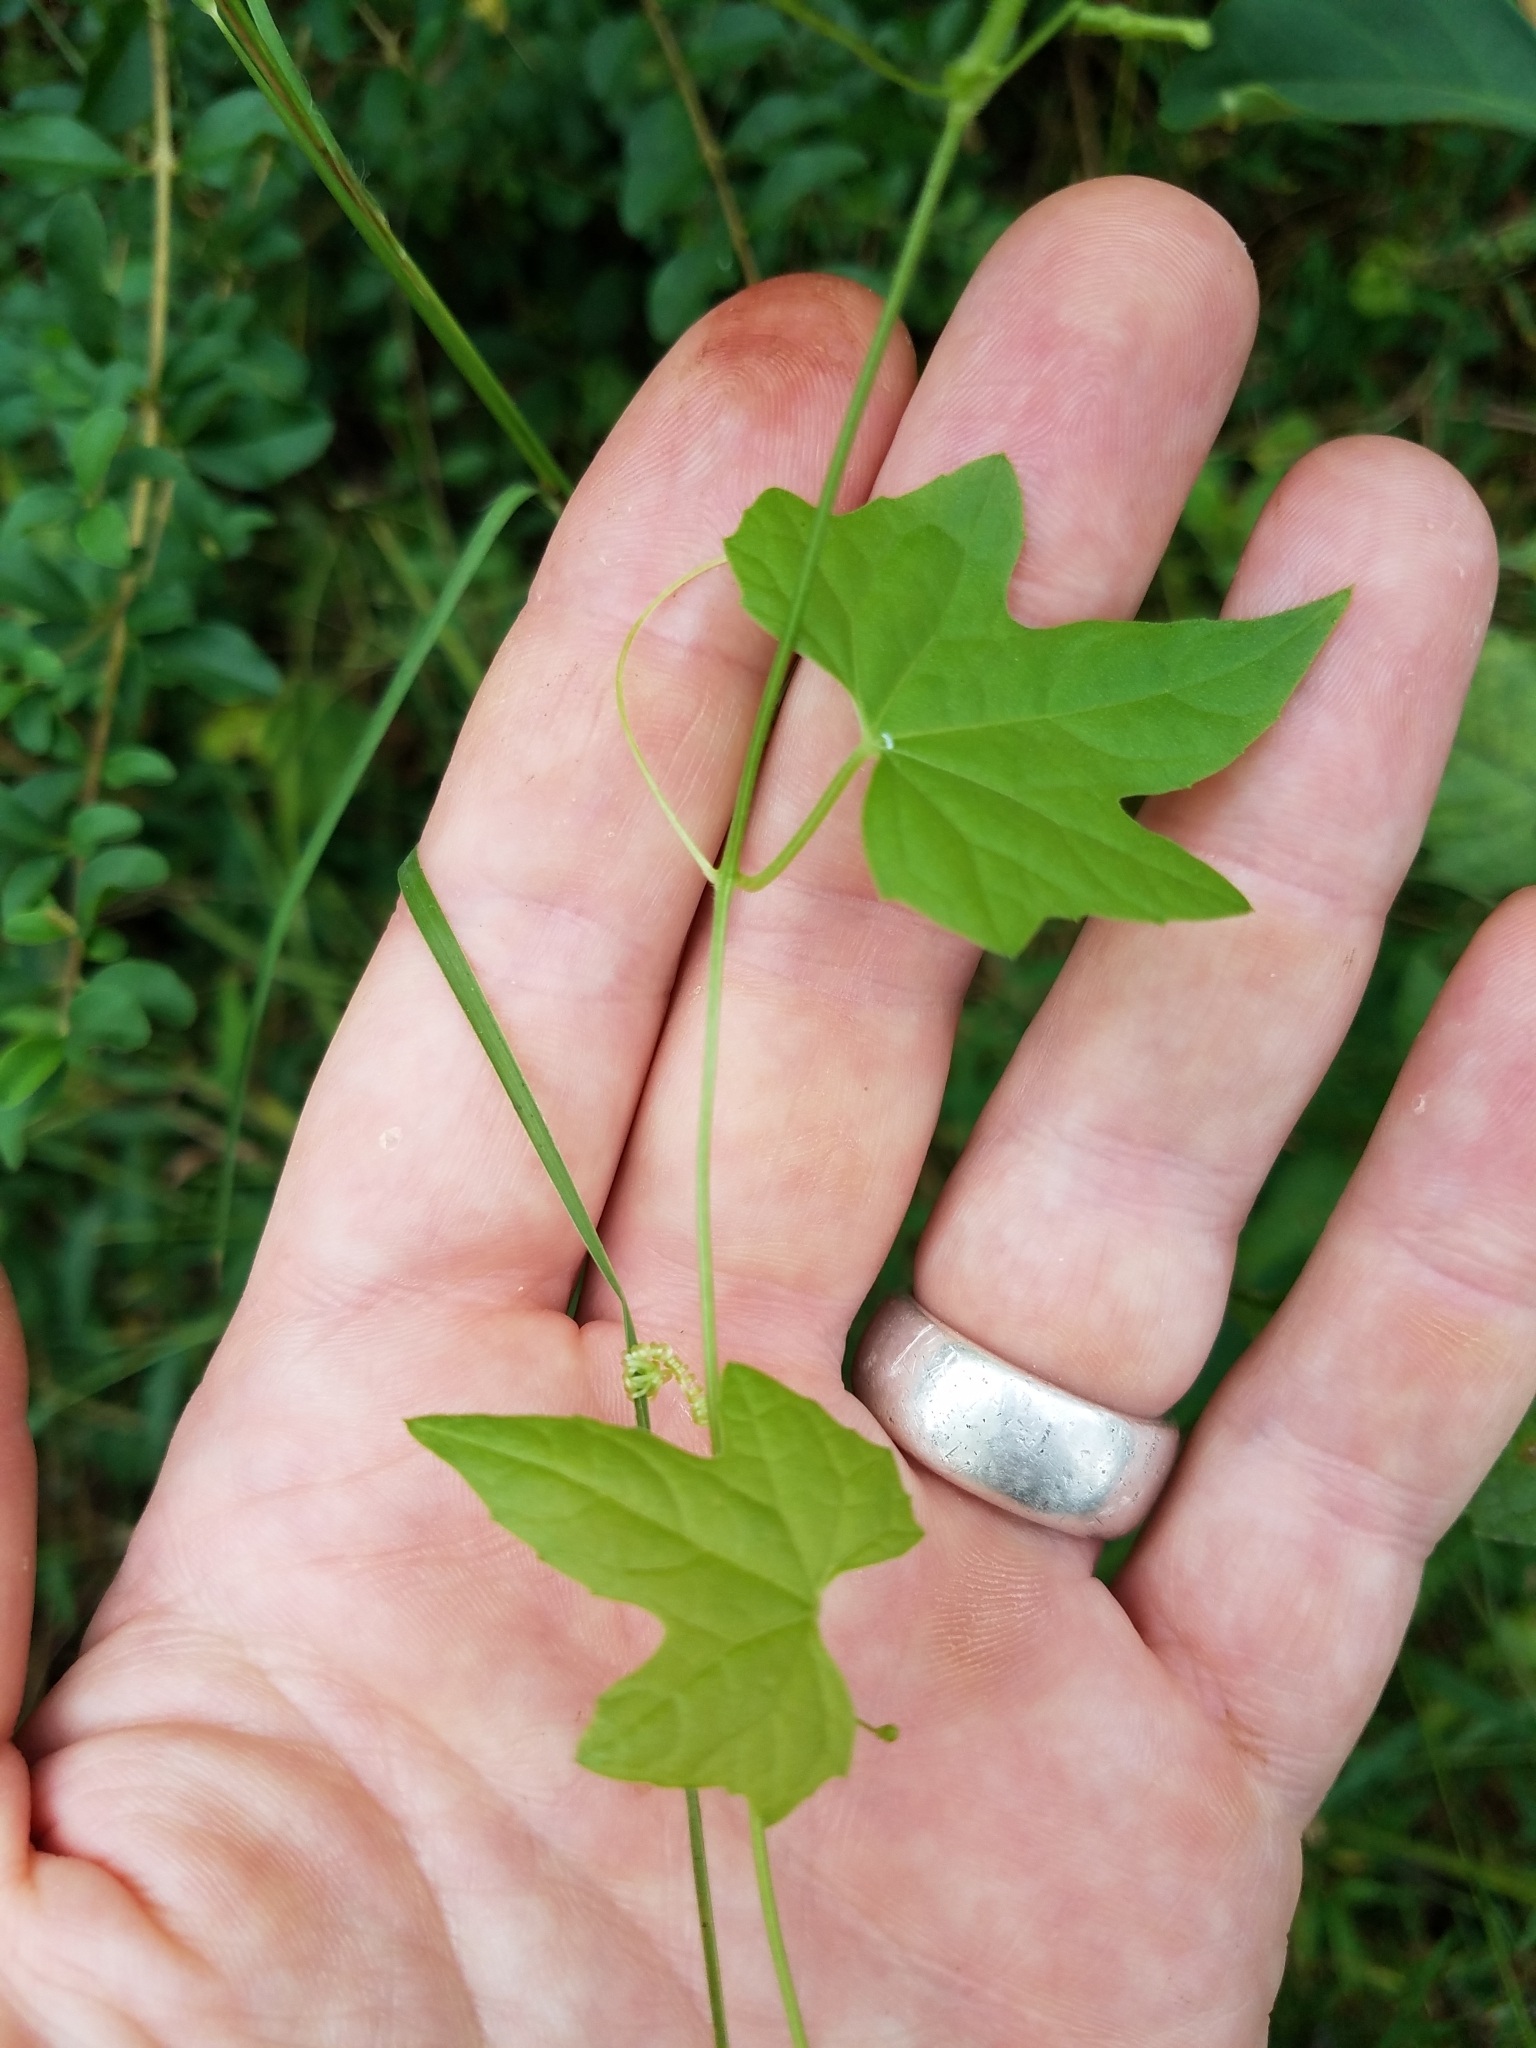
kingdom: Plantae
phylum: Tracheophyta
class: Magnoliopsida
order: Cucurbitales
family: Cucurbitaceae
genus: Melothria
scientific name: Melothria pendula
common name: Creeping-cucumber
